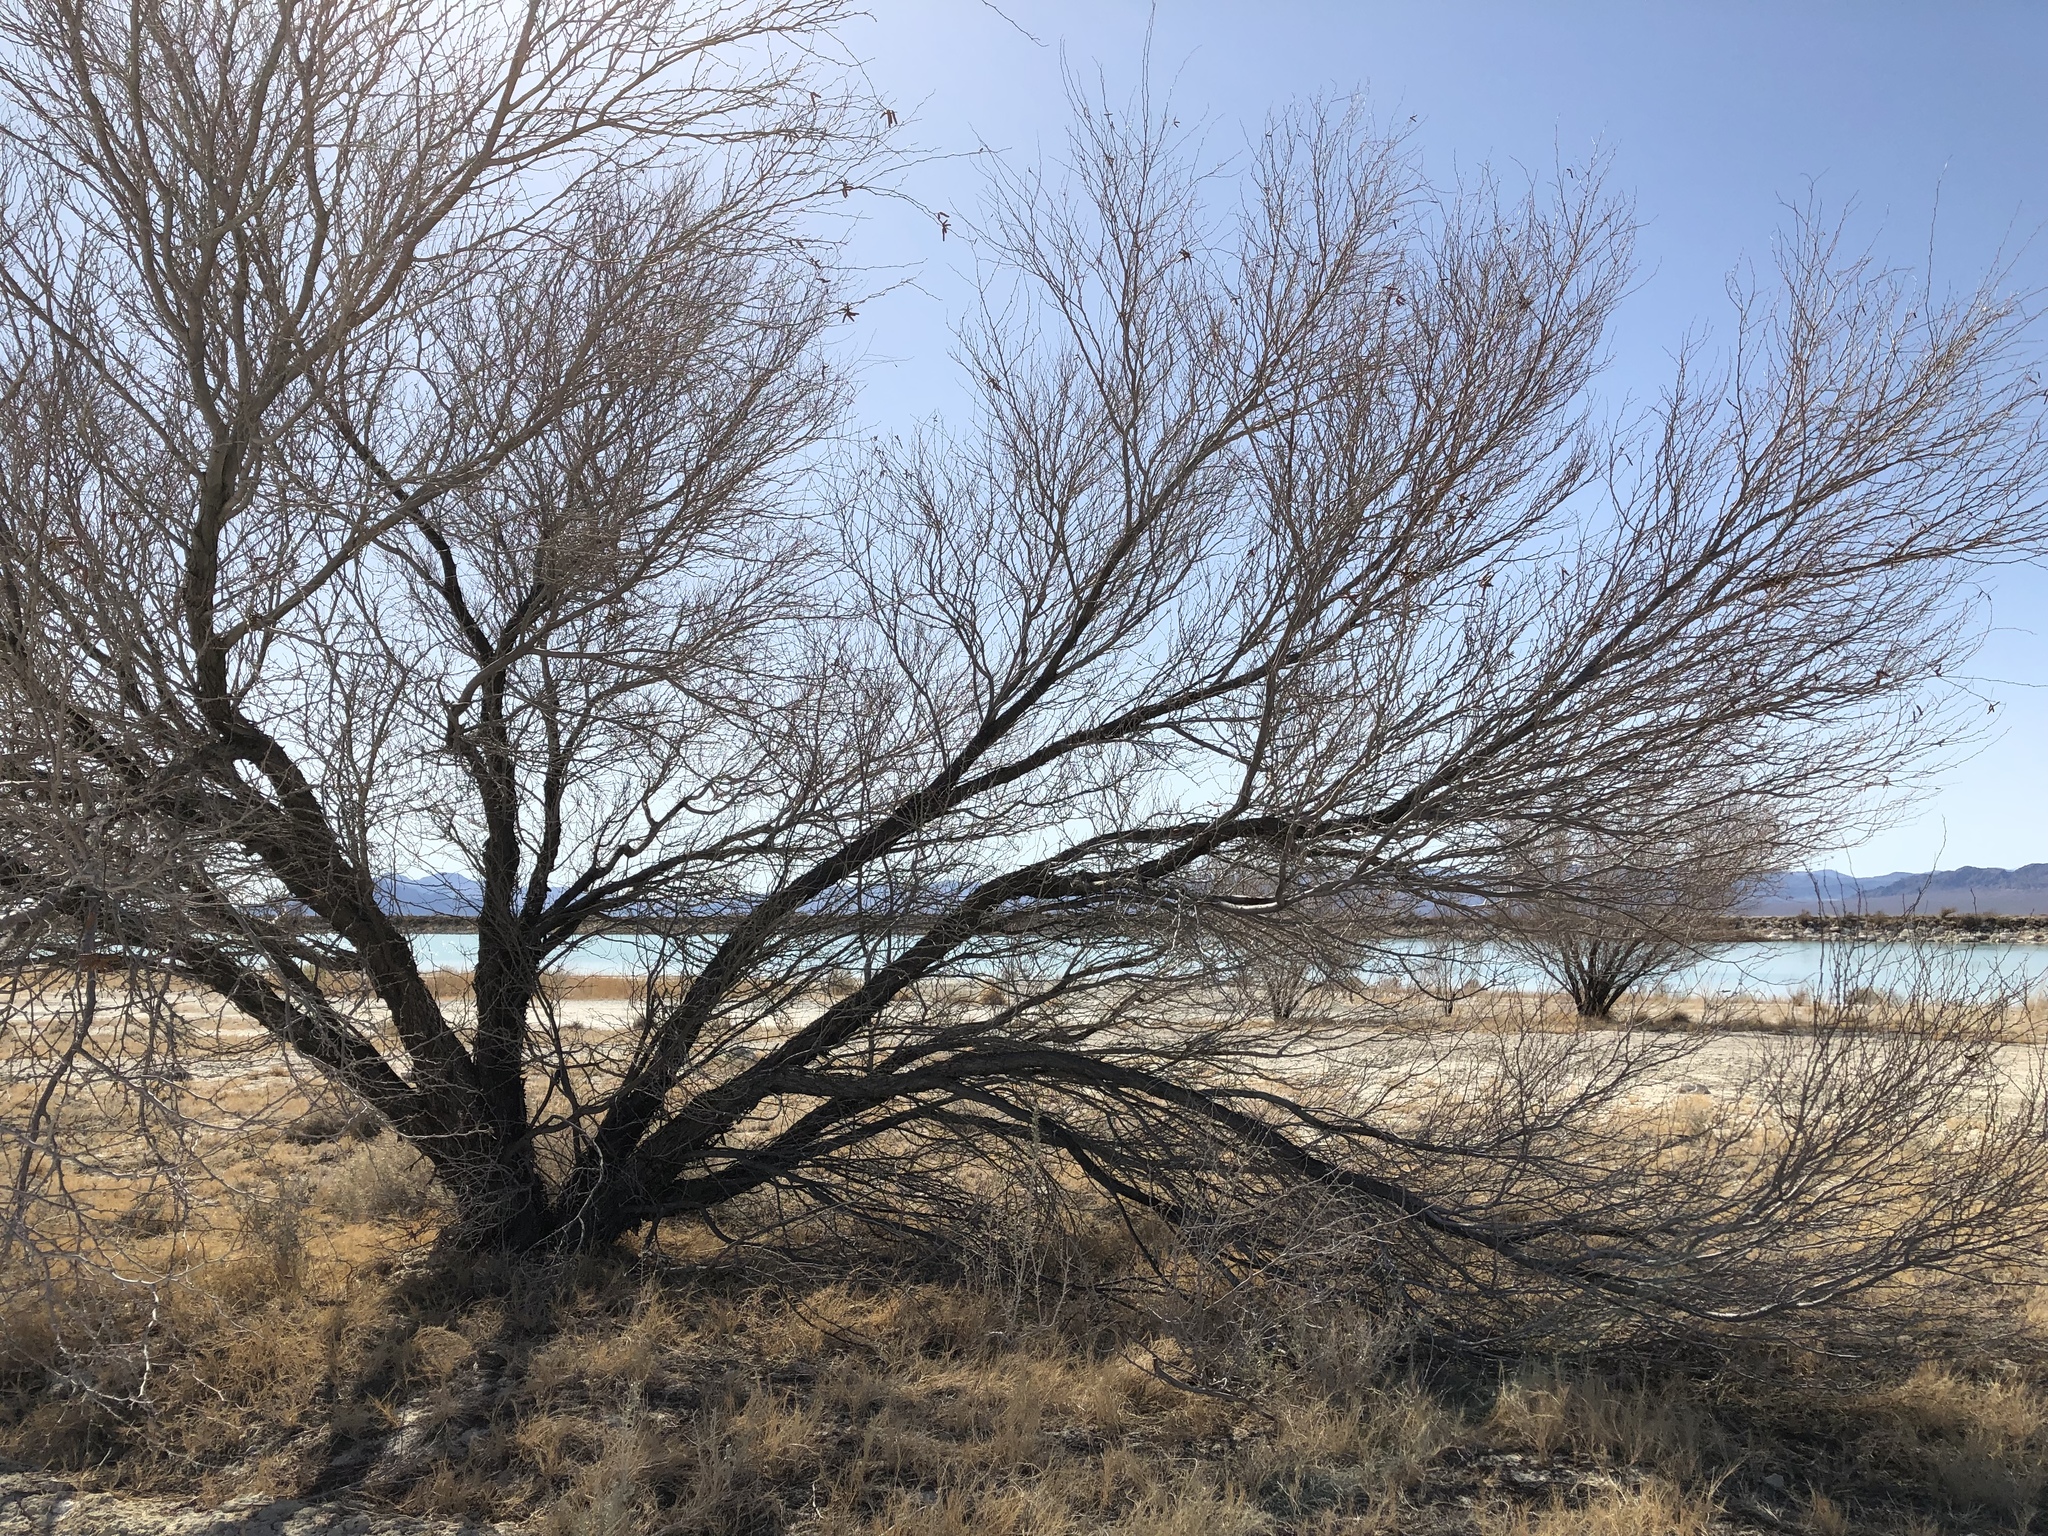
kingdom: Plantae
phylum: Tracheophyta
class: Magnoliopsida
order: Fabales
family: Fabaceae
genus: Prosopis
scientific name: Prosopis pubescens
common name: Screw-bean
